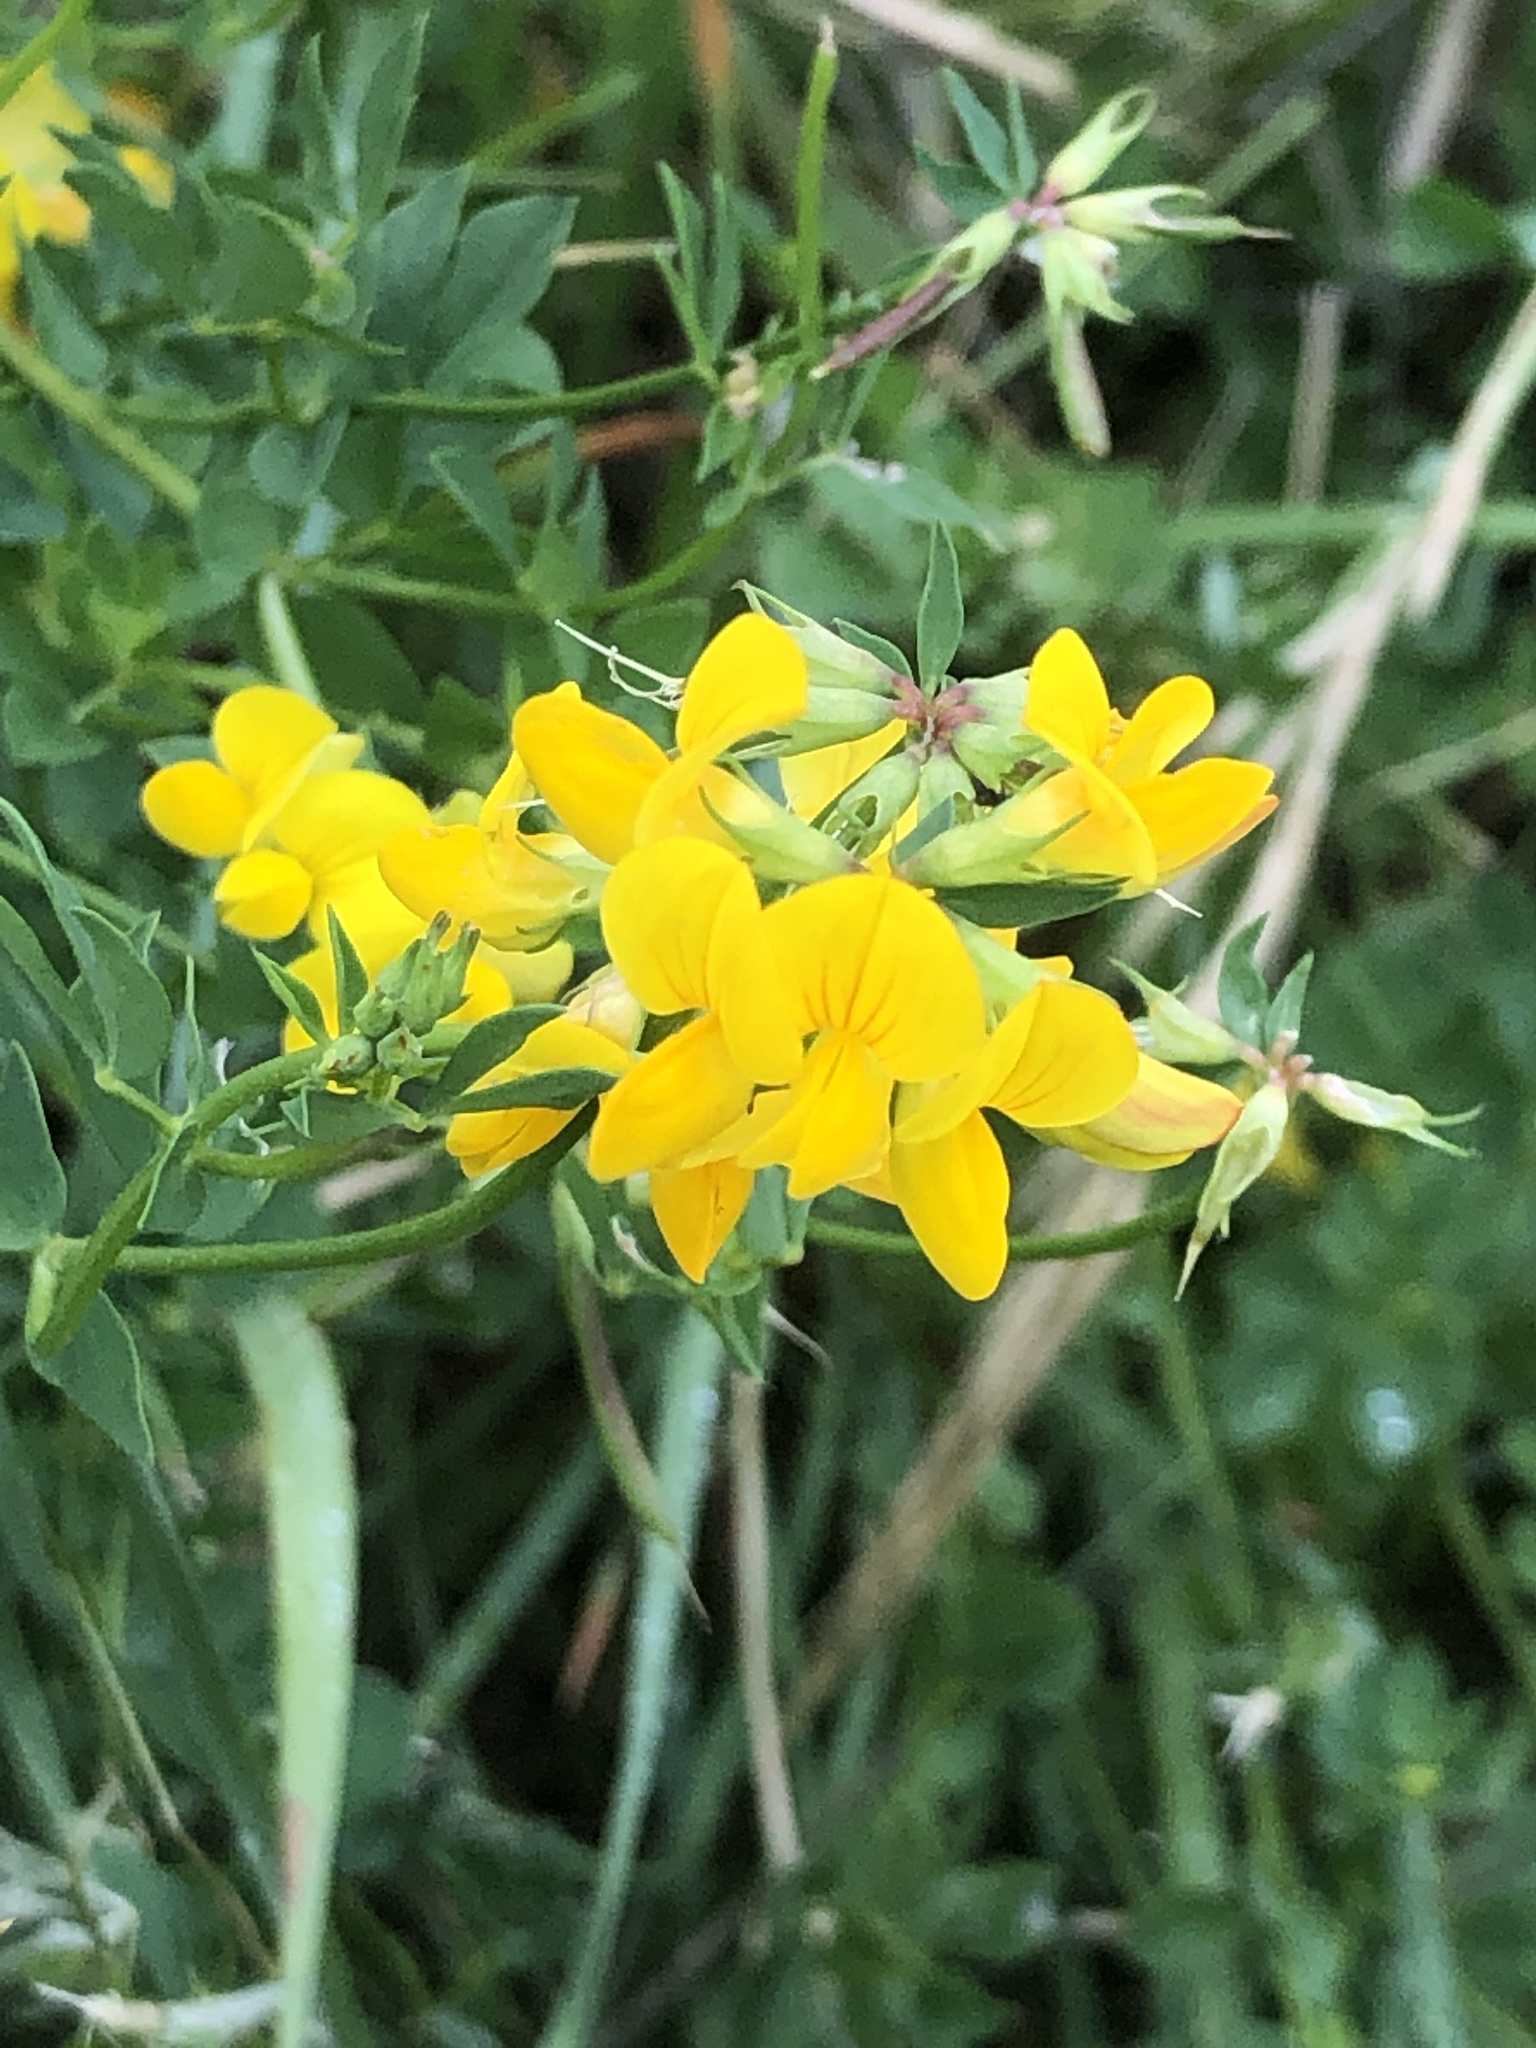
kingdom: Plantae
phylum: Tracheophyta
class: Magnoliopsida
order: Fabales
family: Fabaceae
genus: Lotus
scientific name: Lotus corniculatus
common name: Common bird's-foot-trefoil
